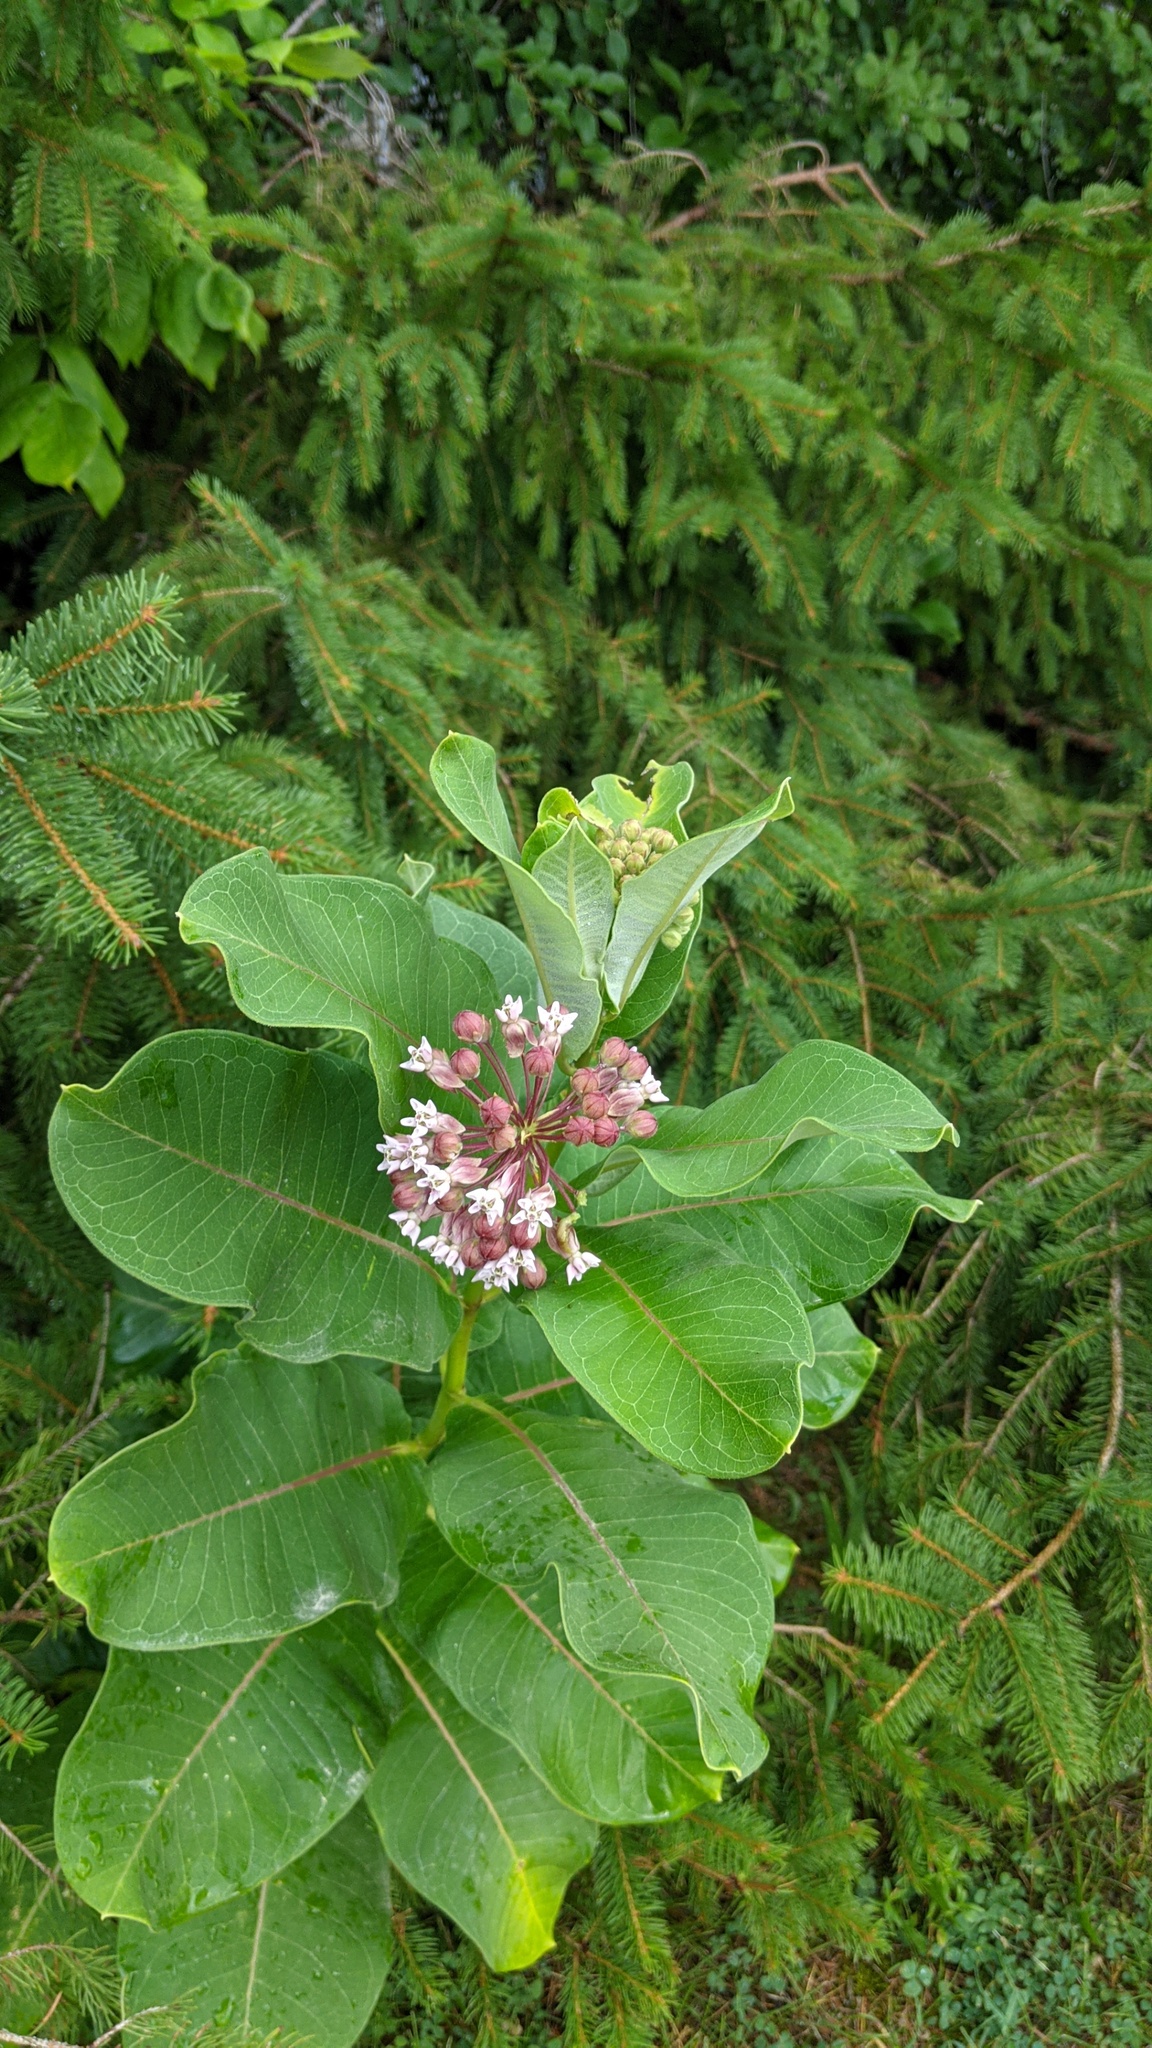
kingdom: Plantae
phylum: Tracheophyta
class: Magnoliopsida
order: Gentianales
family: Apocynaceae
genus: Asclepias
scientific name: Asclepias syriaca
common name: Common milkweed
